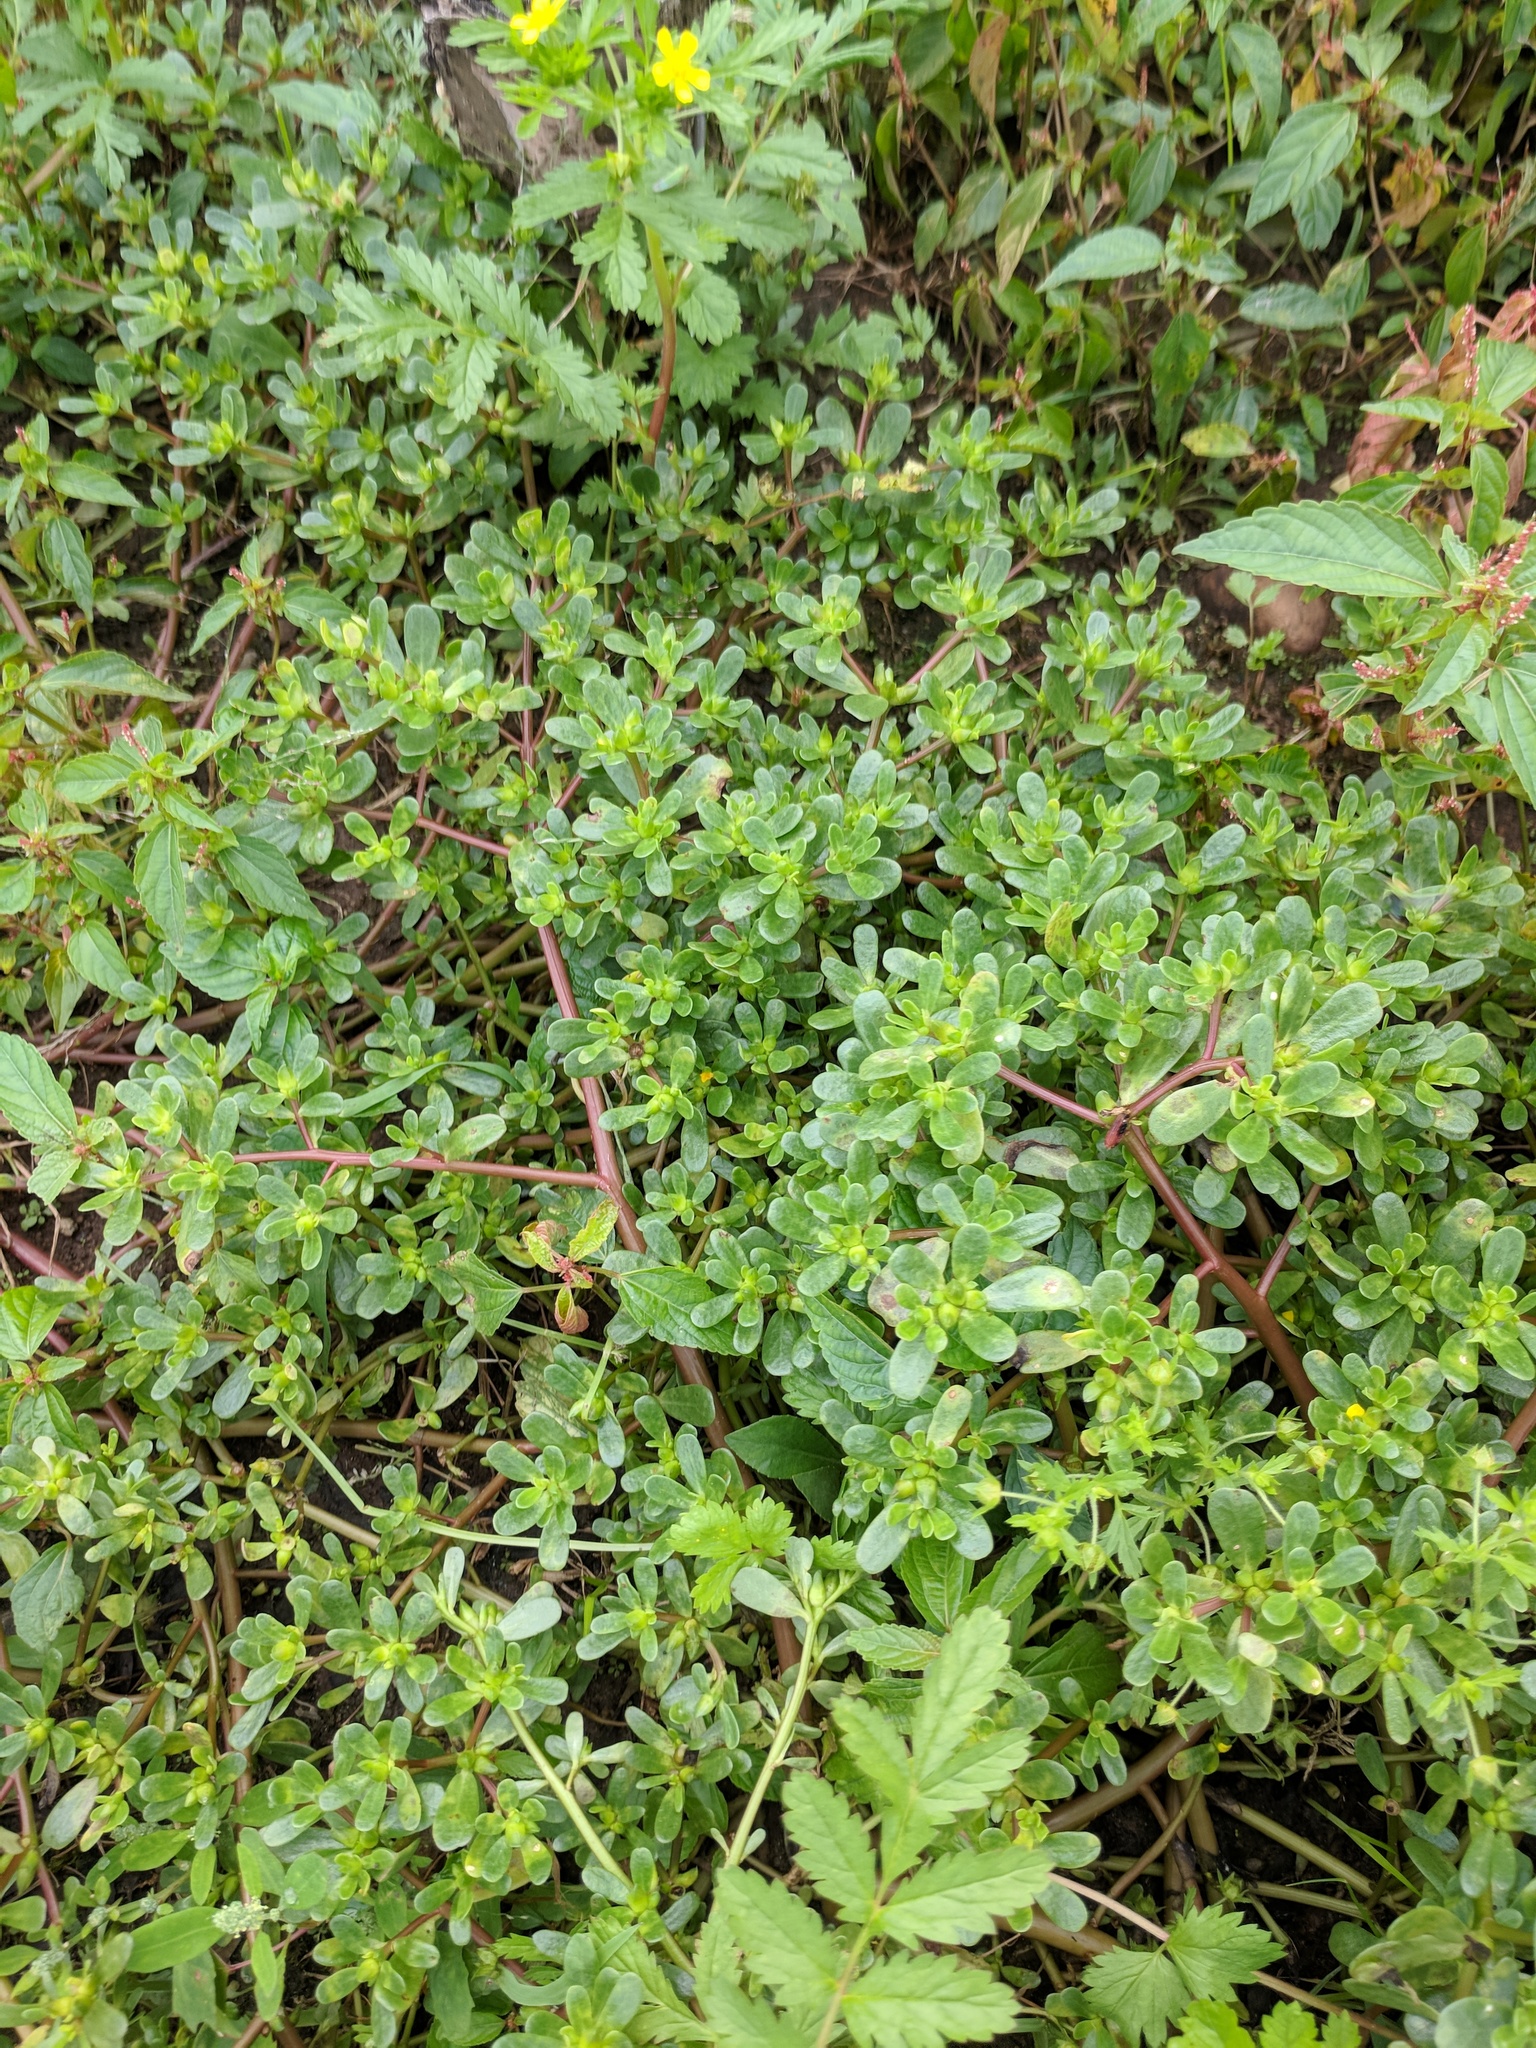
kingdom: Plantae
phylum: Tracheophyta
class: Magnoliopsida
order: Caryophyllales
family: Portulacaceae
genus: Portulaca
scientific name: Portulaca oleracea
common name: Common purslane
